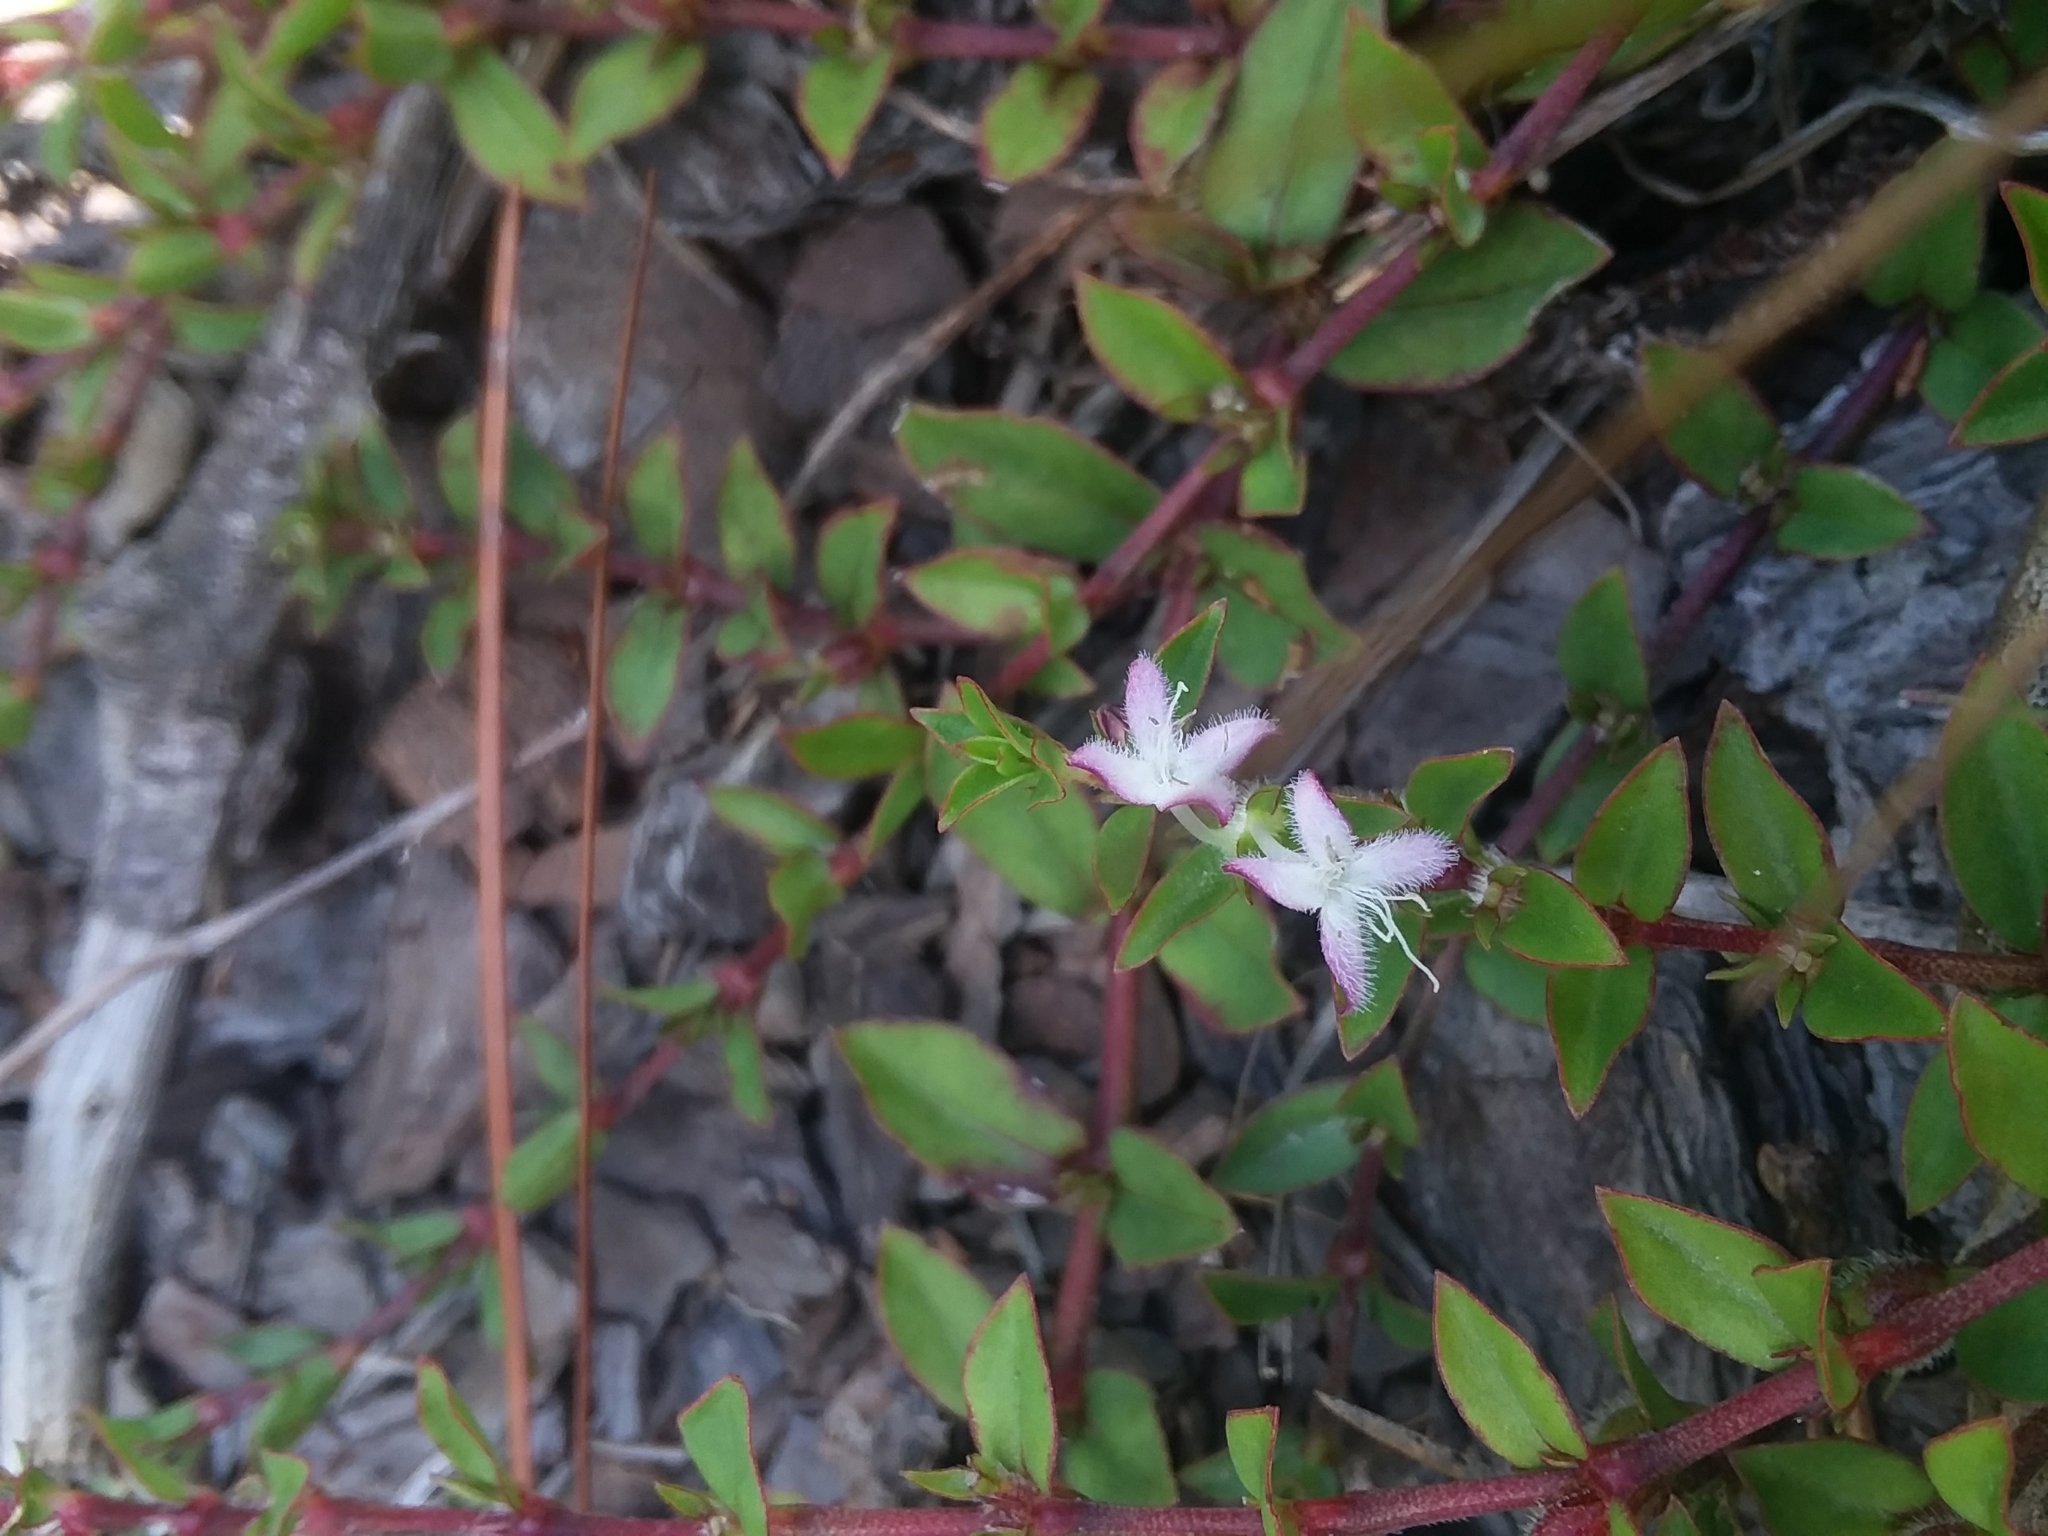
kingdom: Plantae
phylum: Tracheophyta
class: Magnoliopsida
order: Gentianales
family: Rubiaceae
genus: Diodia
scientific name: Diodia virginiana
